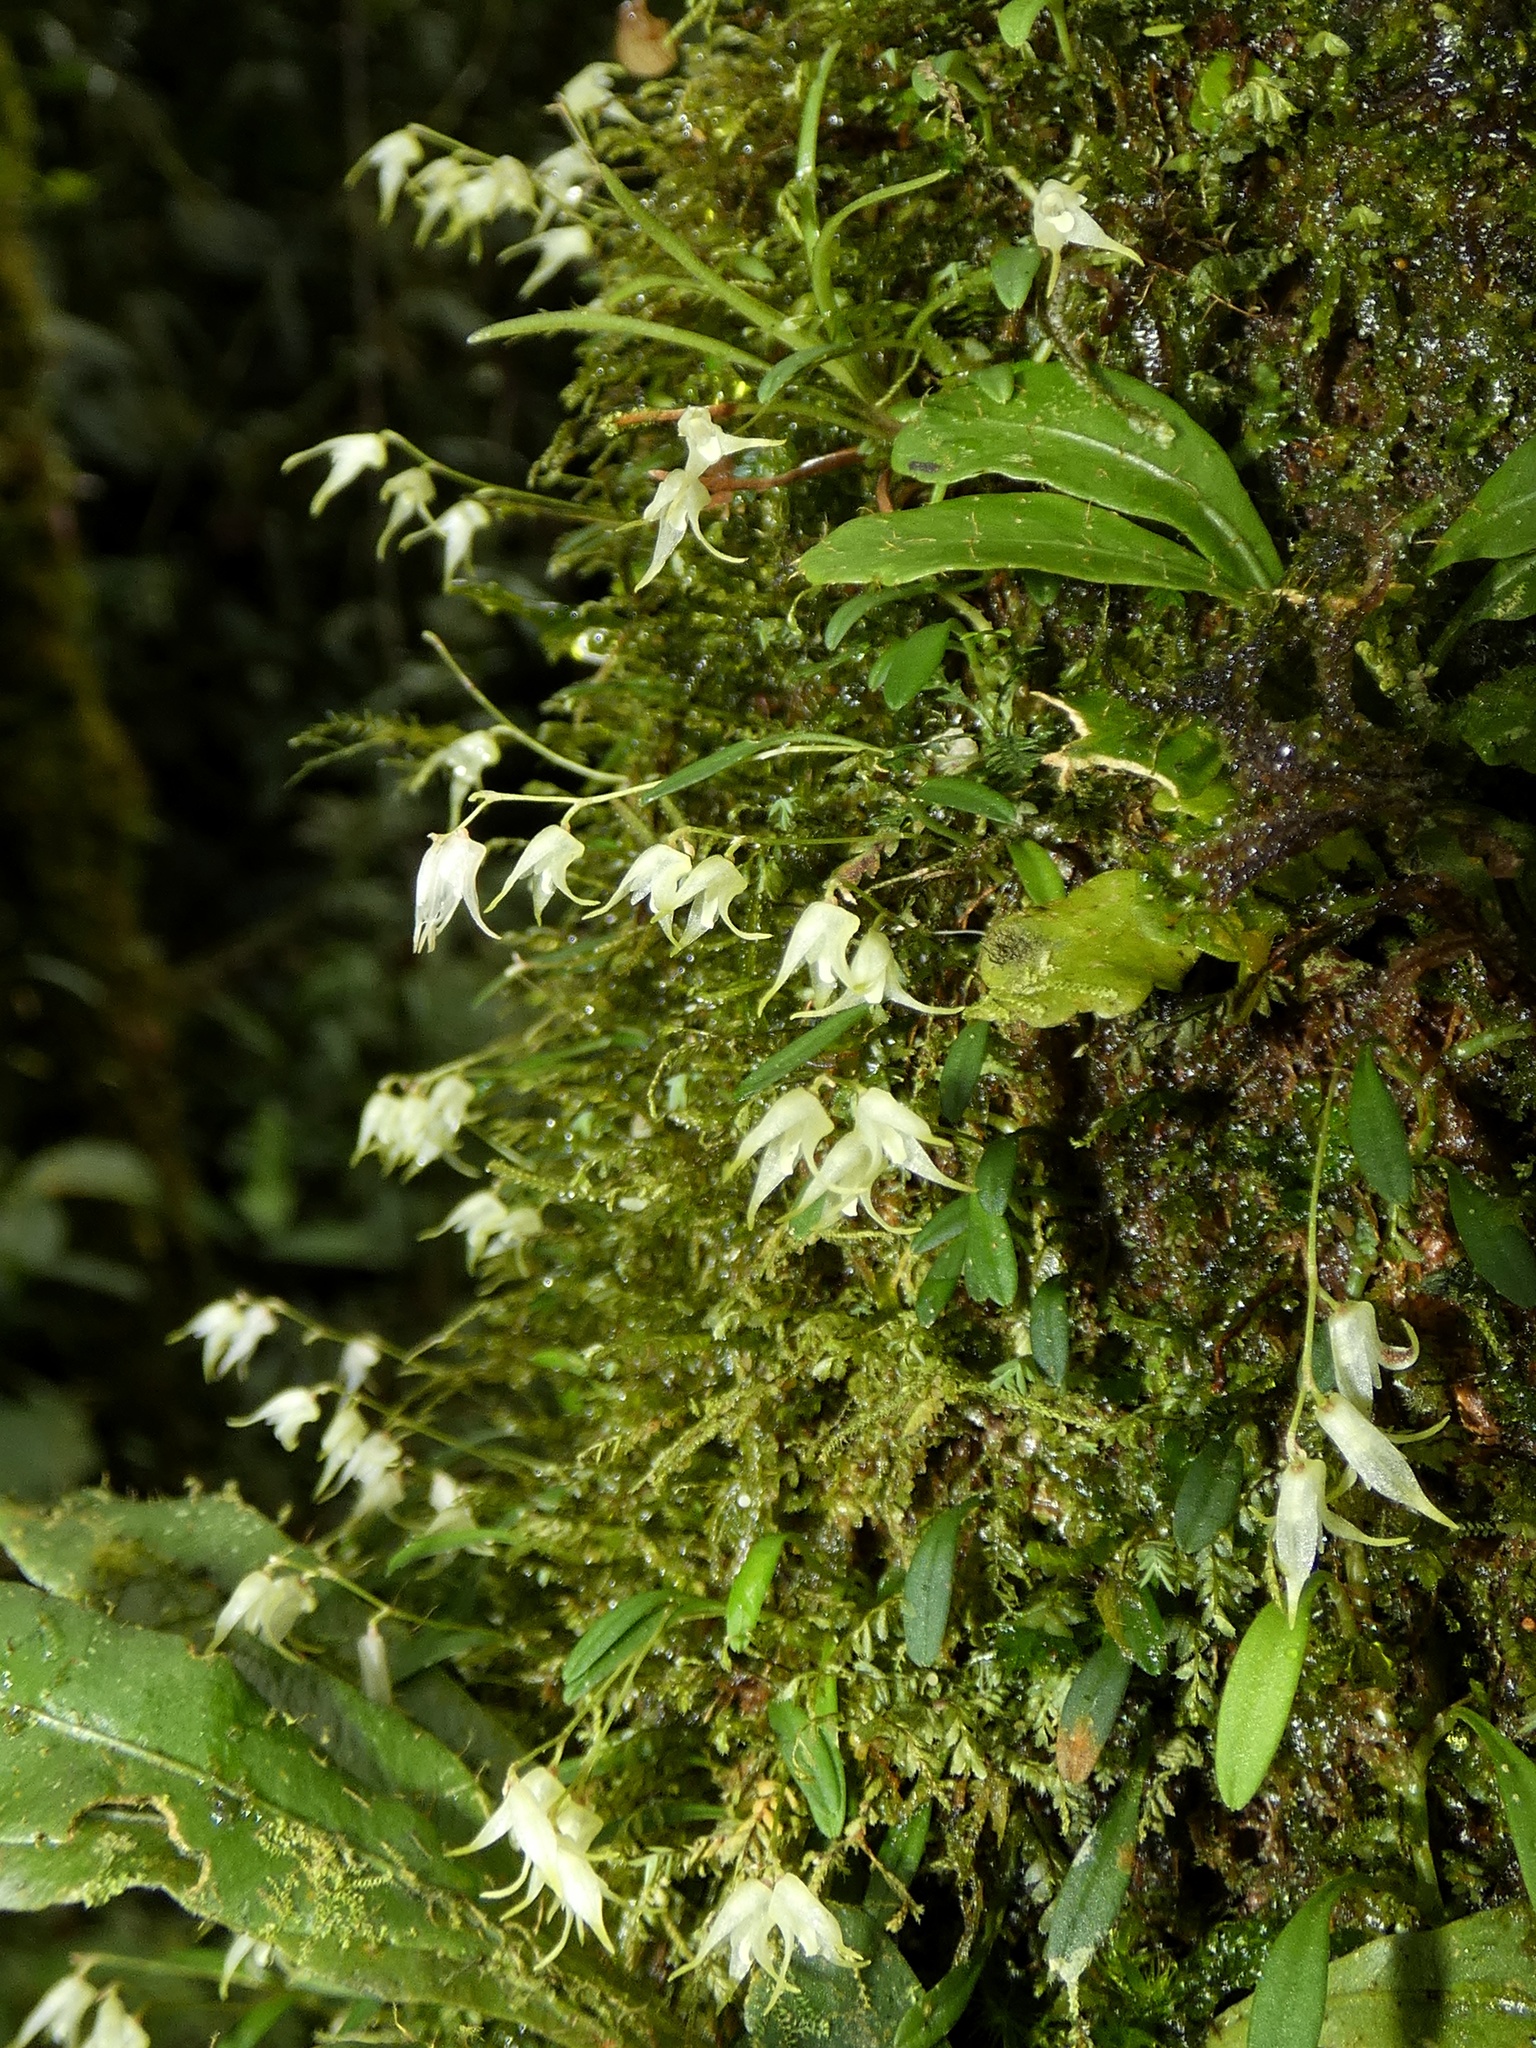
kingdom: Plantae
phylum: Tracheophyta
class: Liliopsida
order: Asparagales
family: Orchidaceae
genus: Specklinia
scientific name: Specklinia calyptrostele
